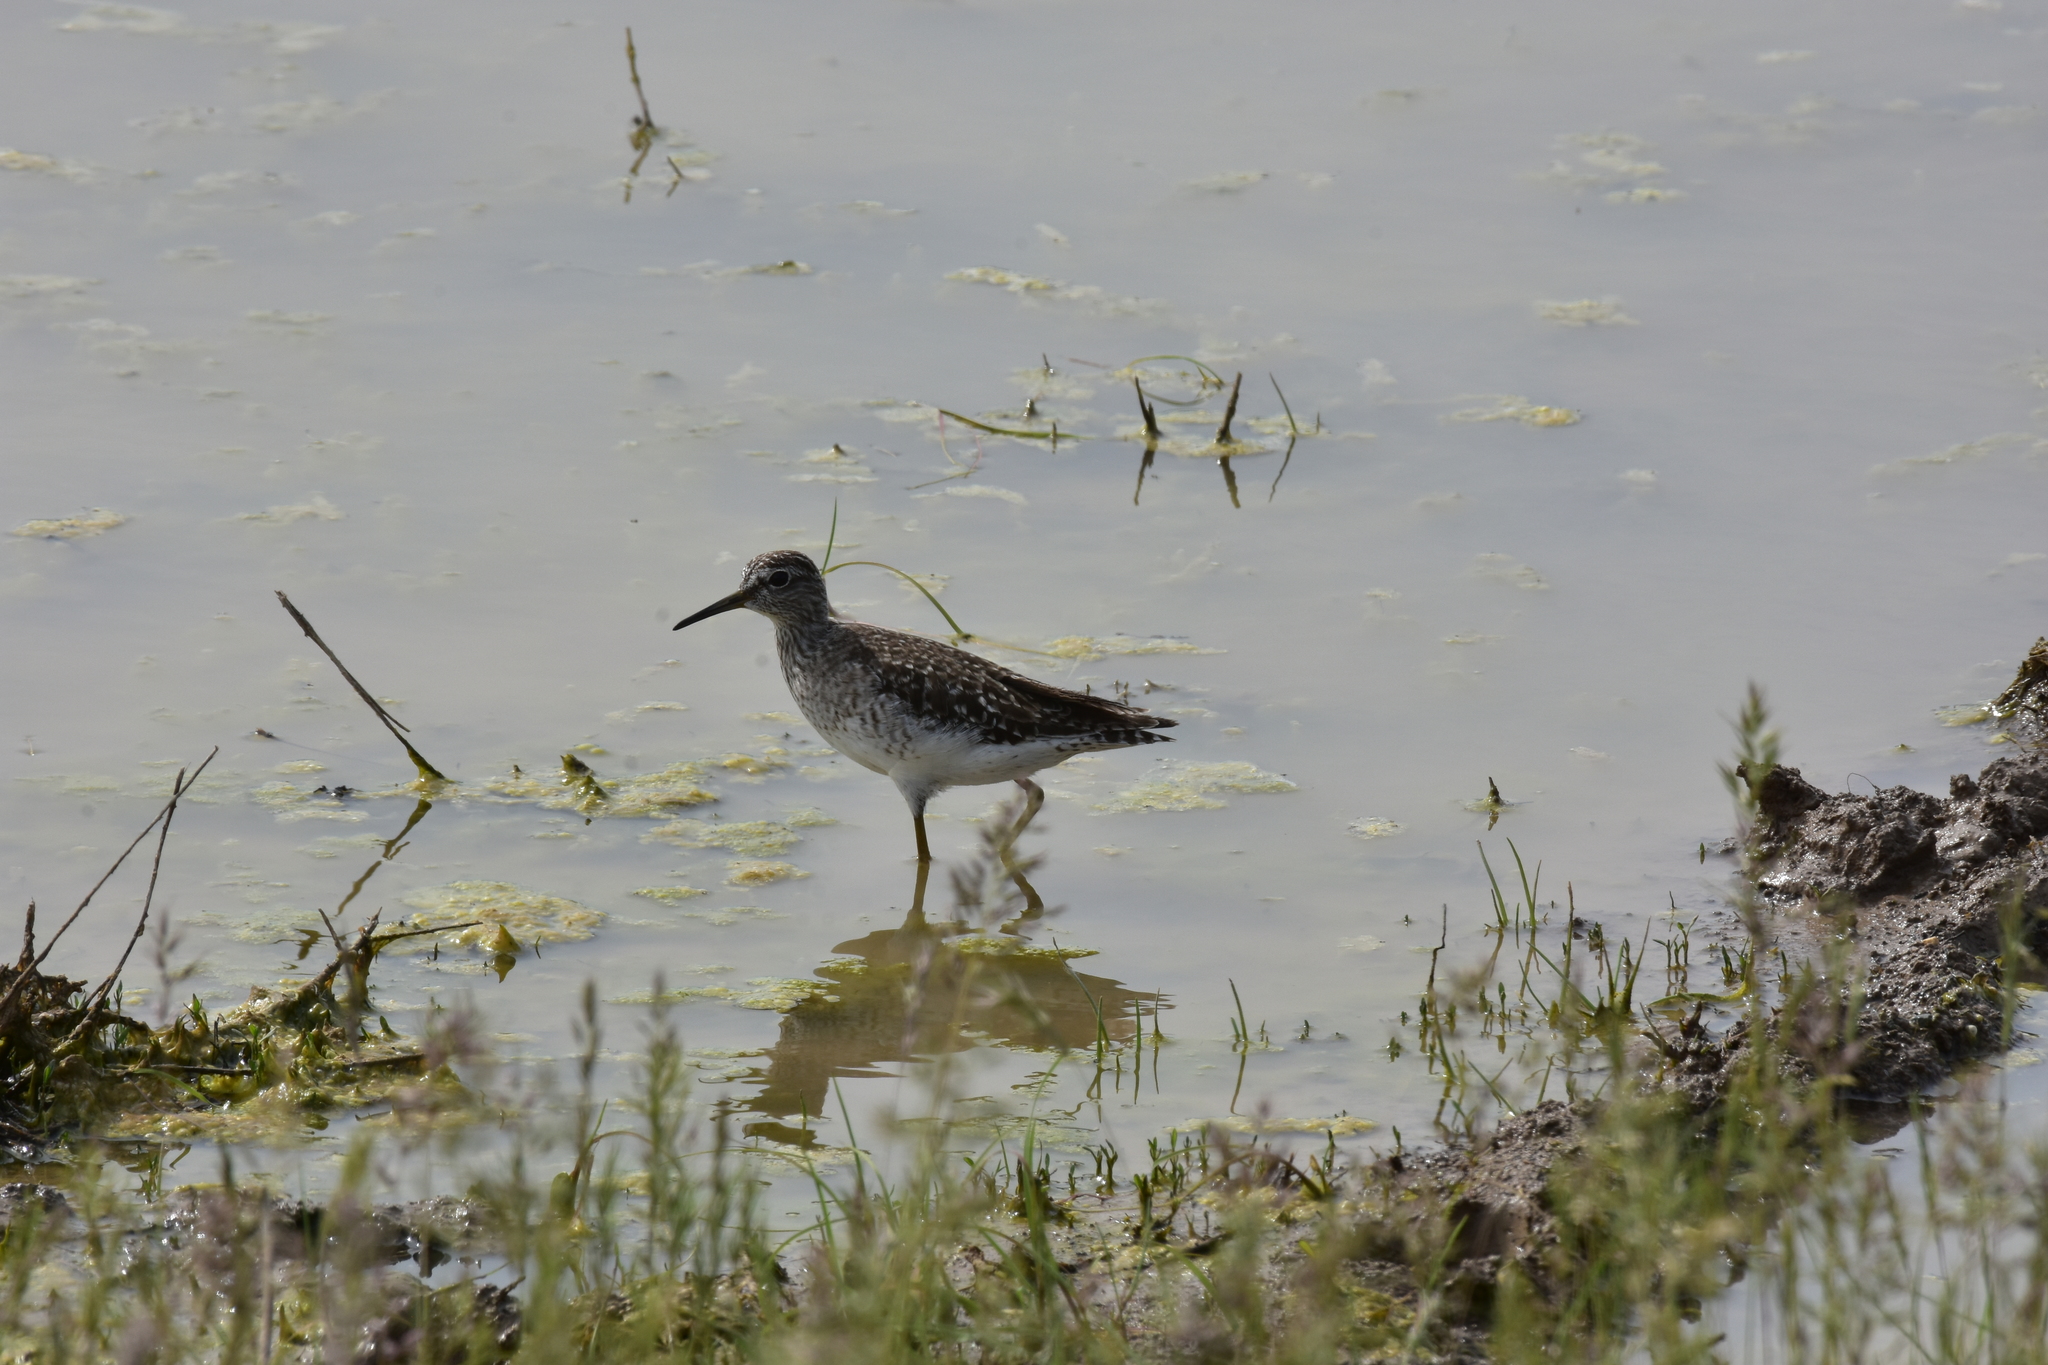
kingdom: Animalia
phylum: Chordata
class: Aves
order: Charadriiformes
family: Scolopacidae
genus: Tringa
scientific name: Tringa glareola
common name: Wood sandpiper
